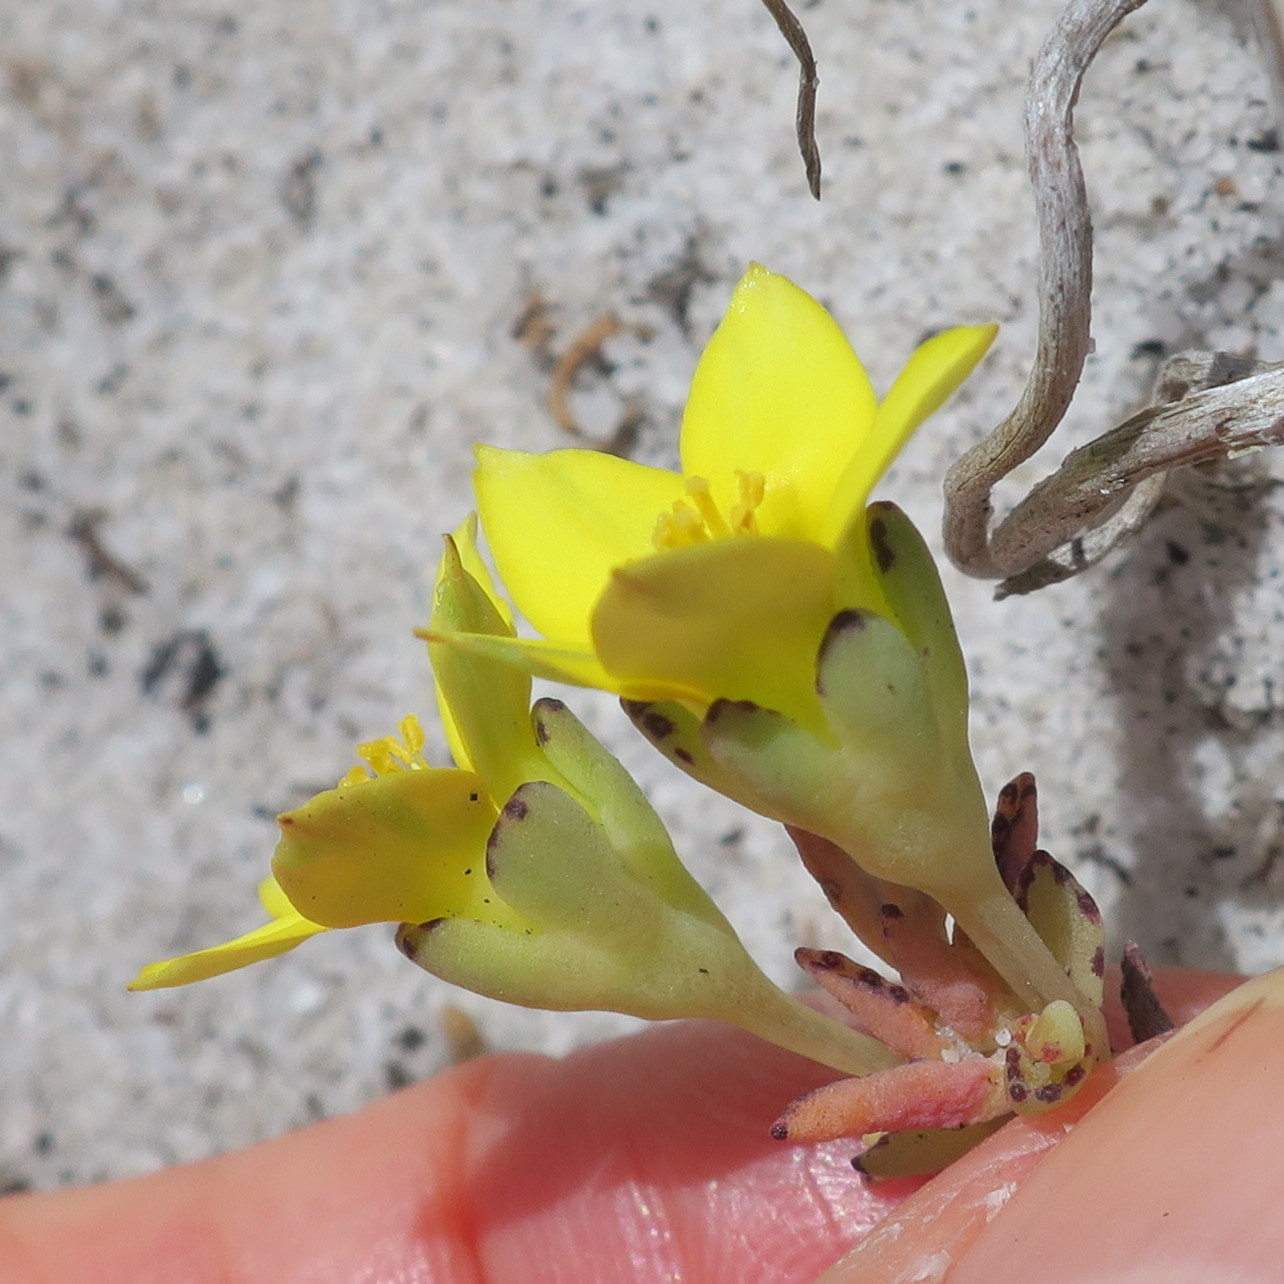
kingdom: Plantae
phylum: Tracheophyta
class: Magnoliopsida
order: Saxifragales
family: Crassulaceae
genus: Crassula
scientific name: Crassula dichotoma
